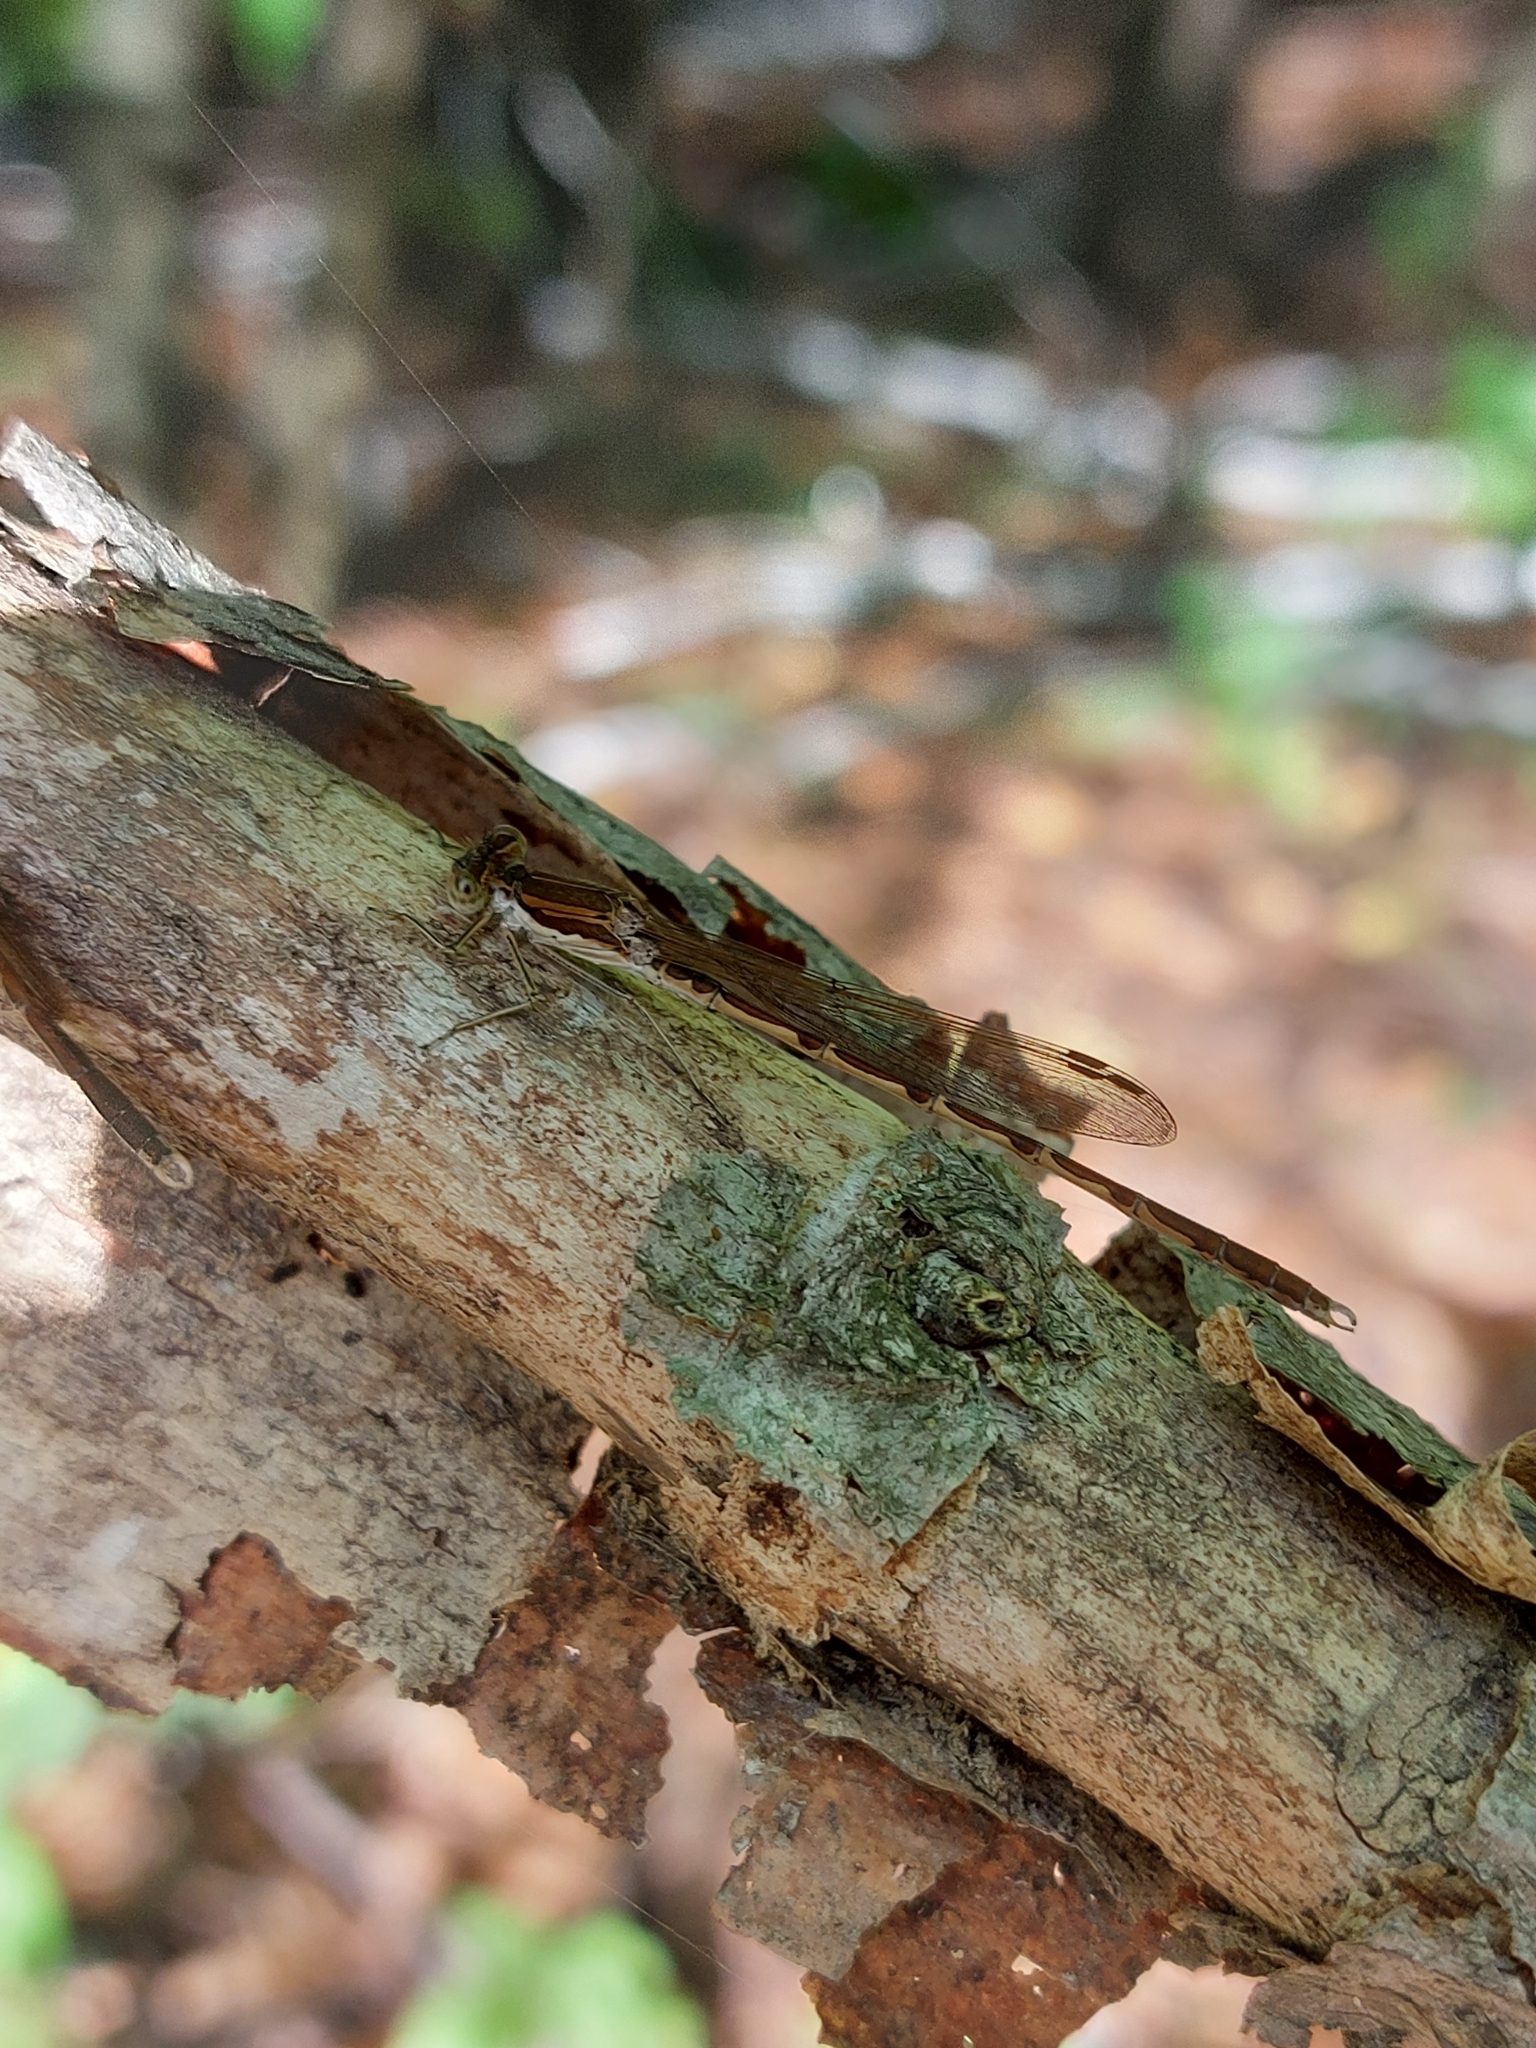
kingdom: Animalia
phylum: Arthropoda
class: Insecta
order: Odonata
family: Lestidae
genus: Sympecma
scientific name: Sympecma fusca
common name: Common winter damsel
